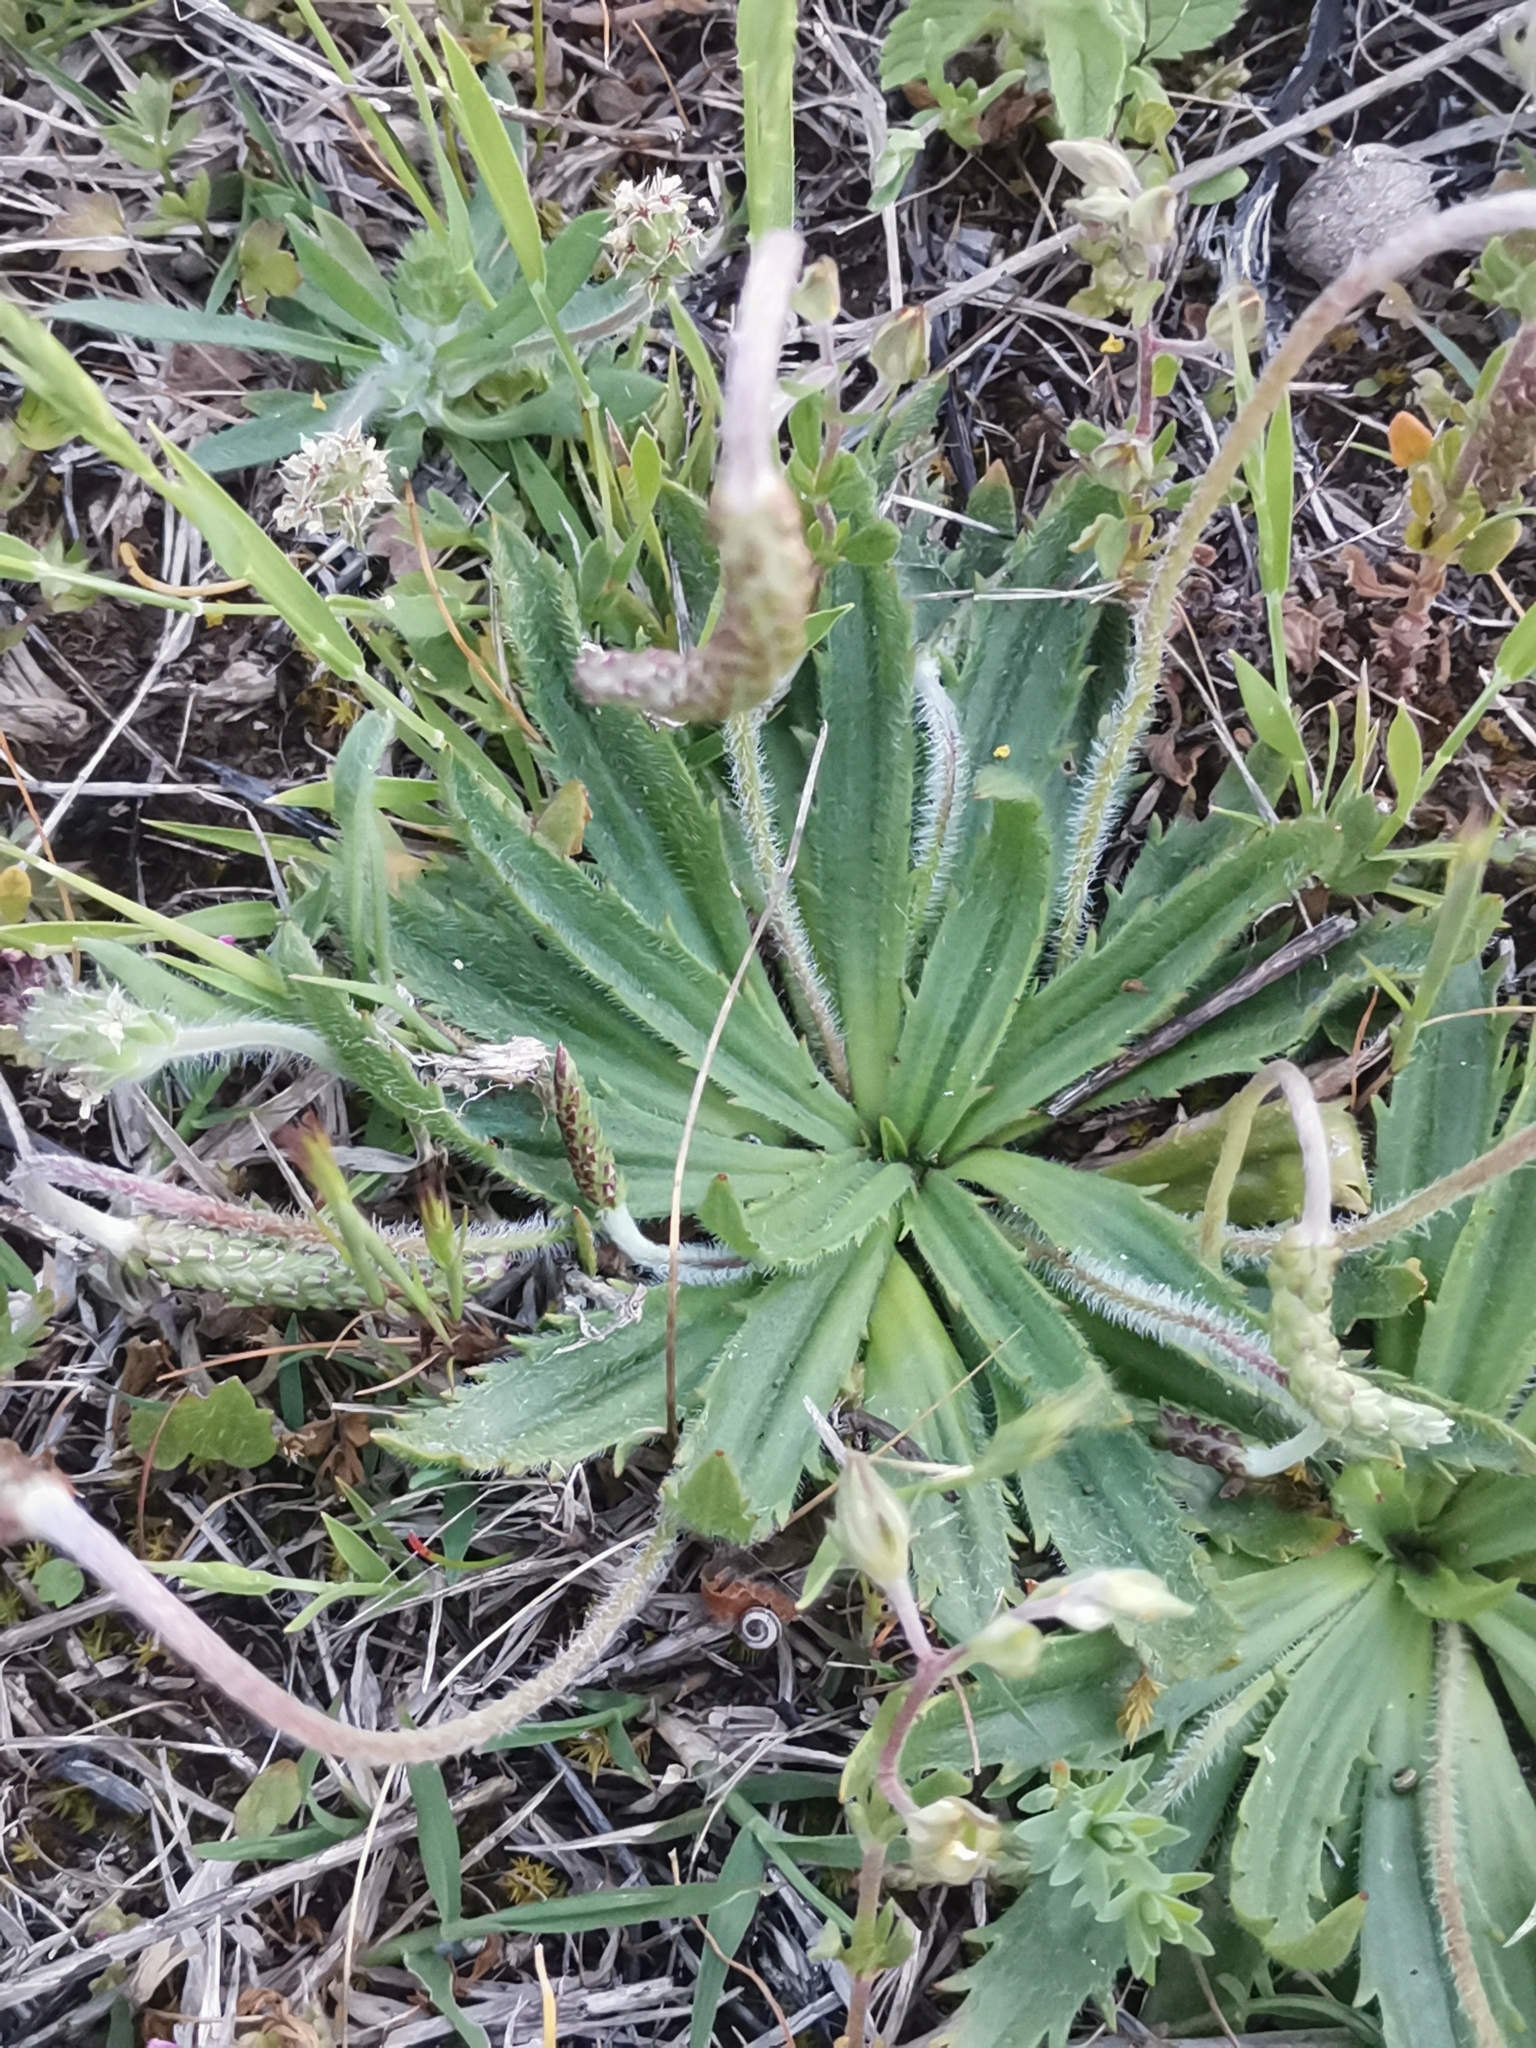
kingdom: Plantae
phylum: Tracheophyta
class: Magnoliopsida
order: Lamiales
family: Plantaginaceae
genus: Plantago
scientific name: Plantago serraria
